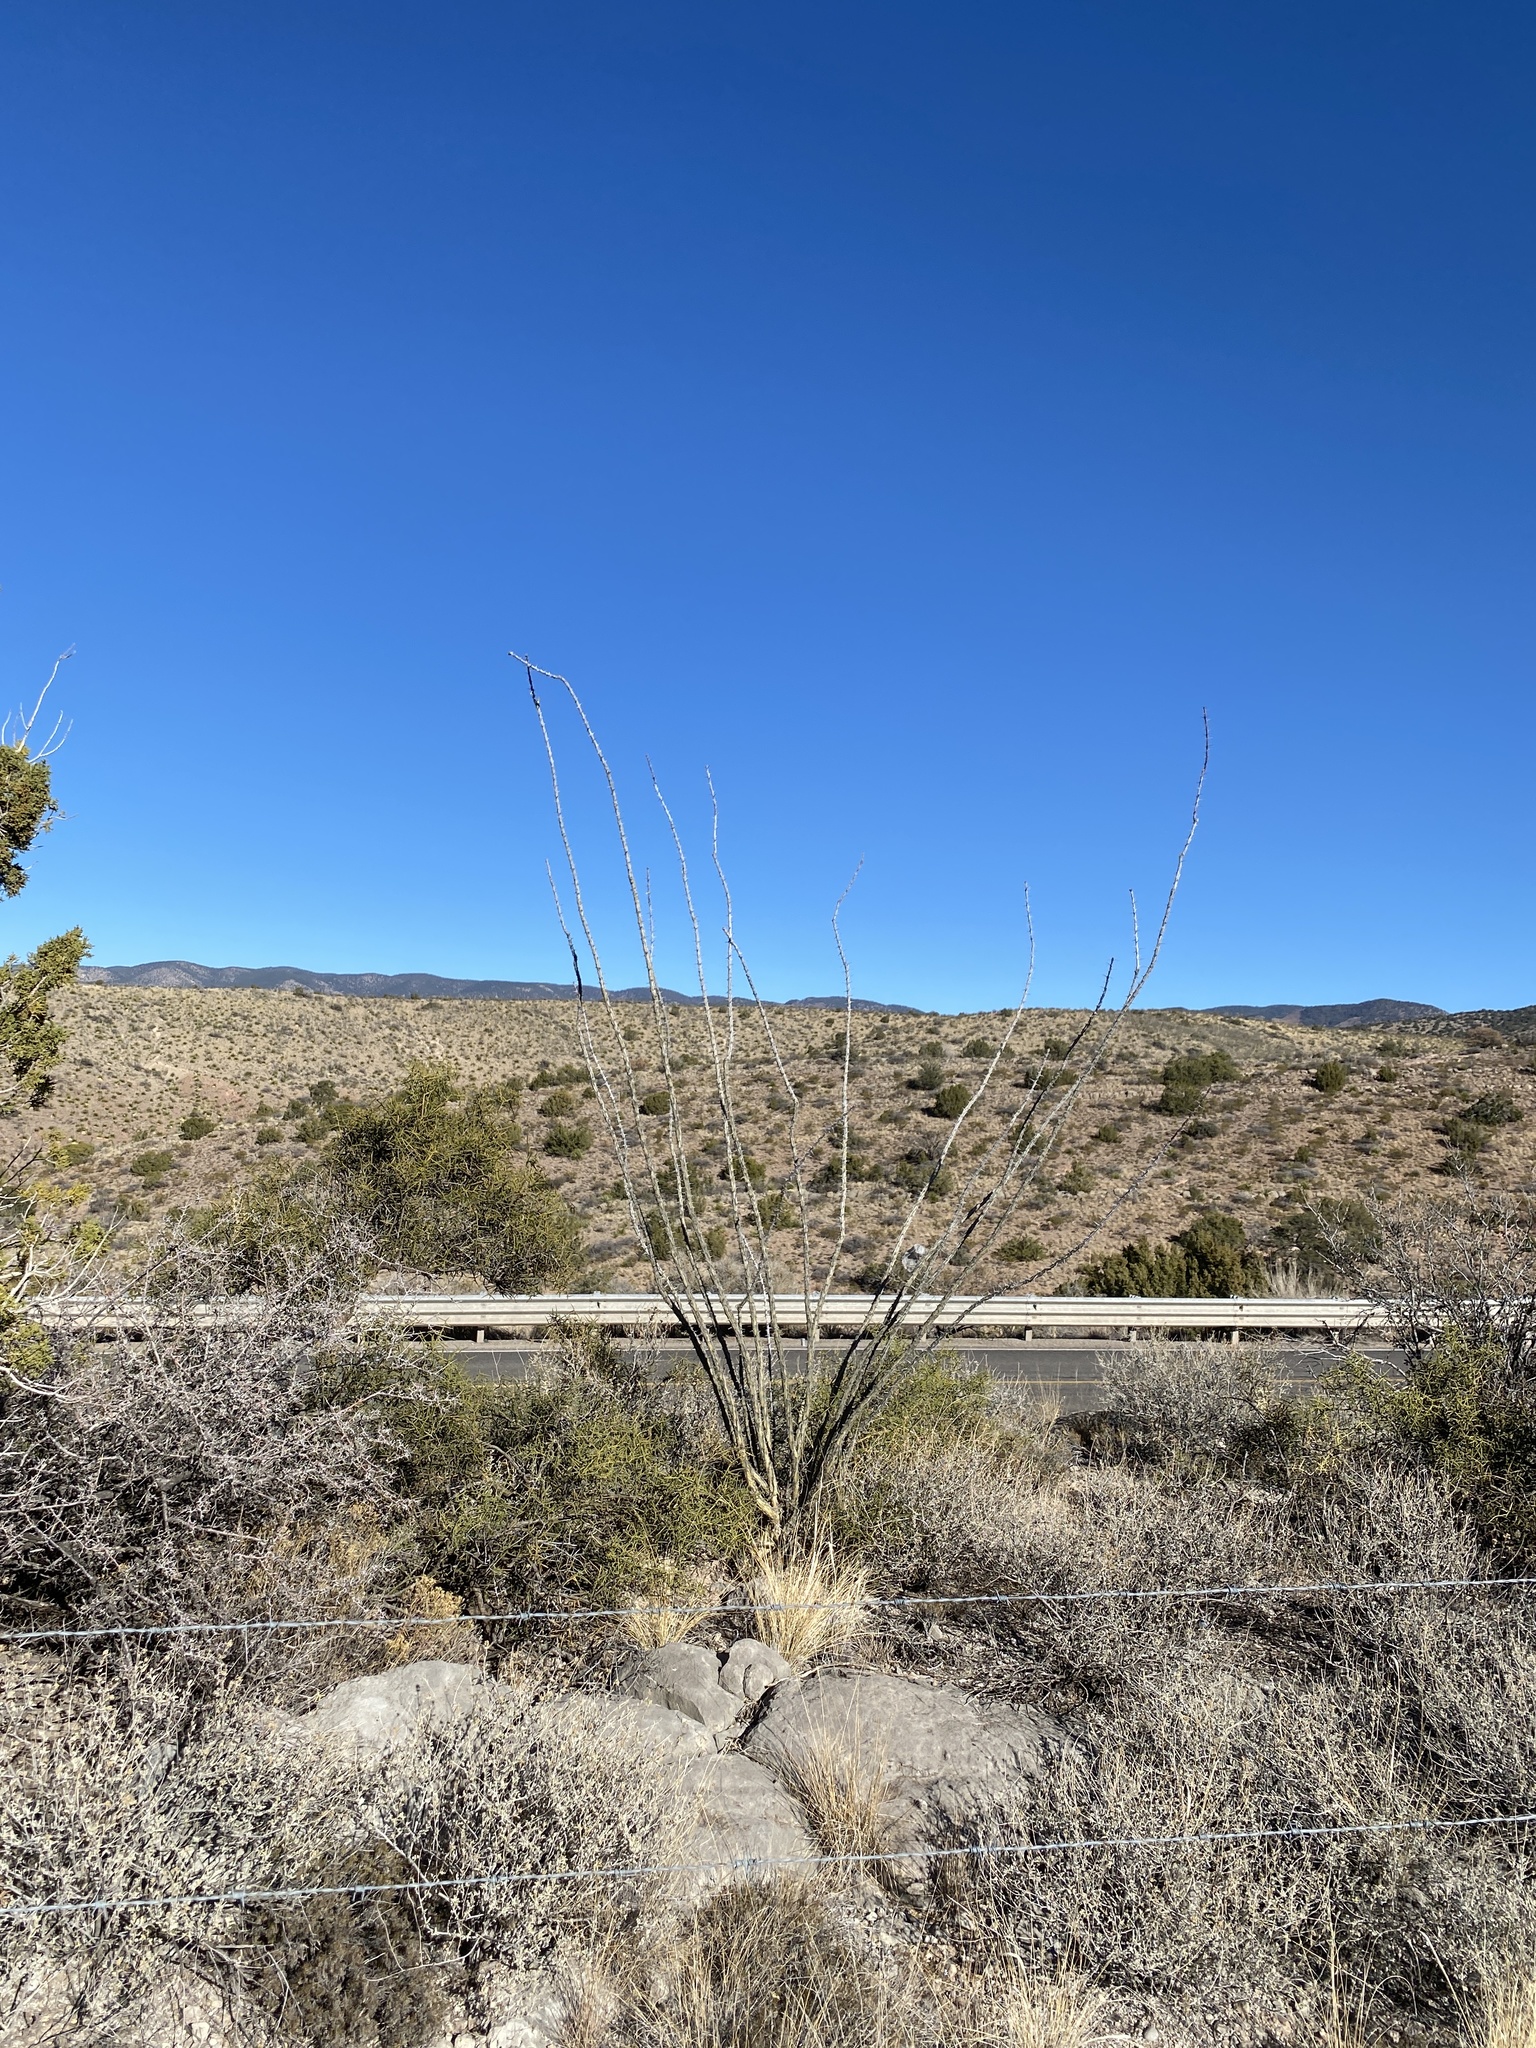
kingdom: Plantae
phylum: Tracheophyta
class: Magnoliopsida
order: Ericales
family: Fouquieriaceae
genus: Fouquieria
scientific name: Fouquieria splendens
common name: Vine-cactus
